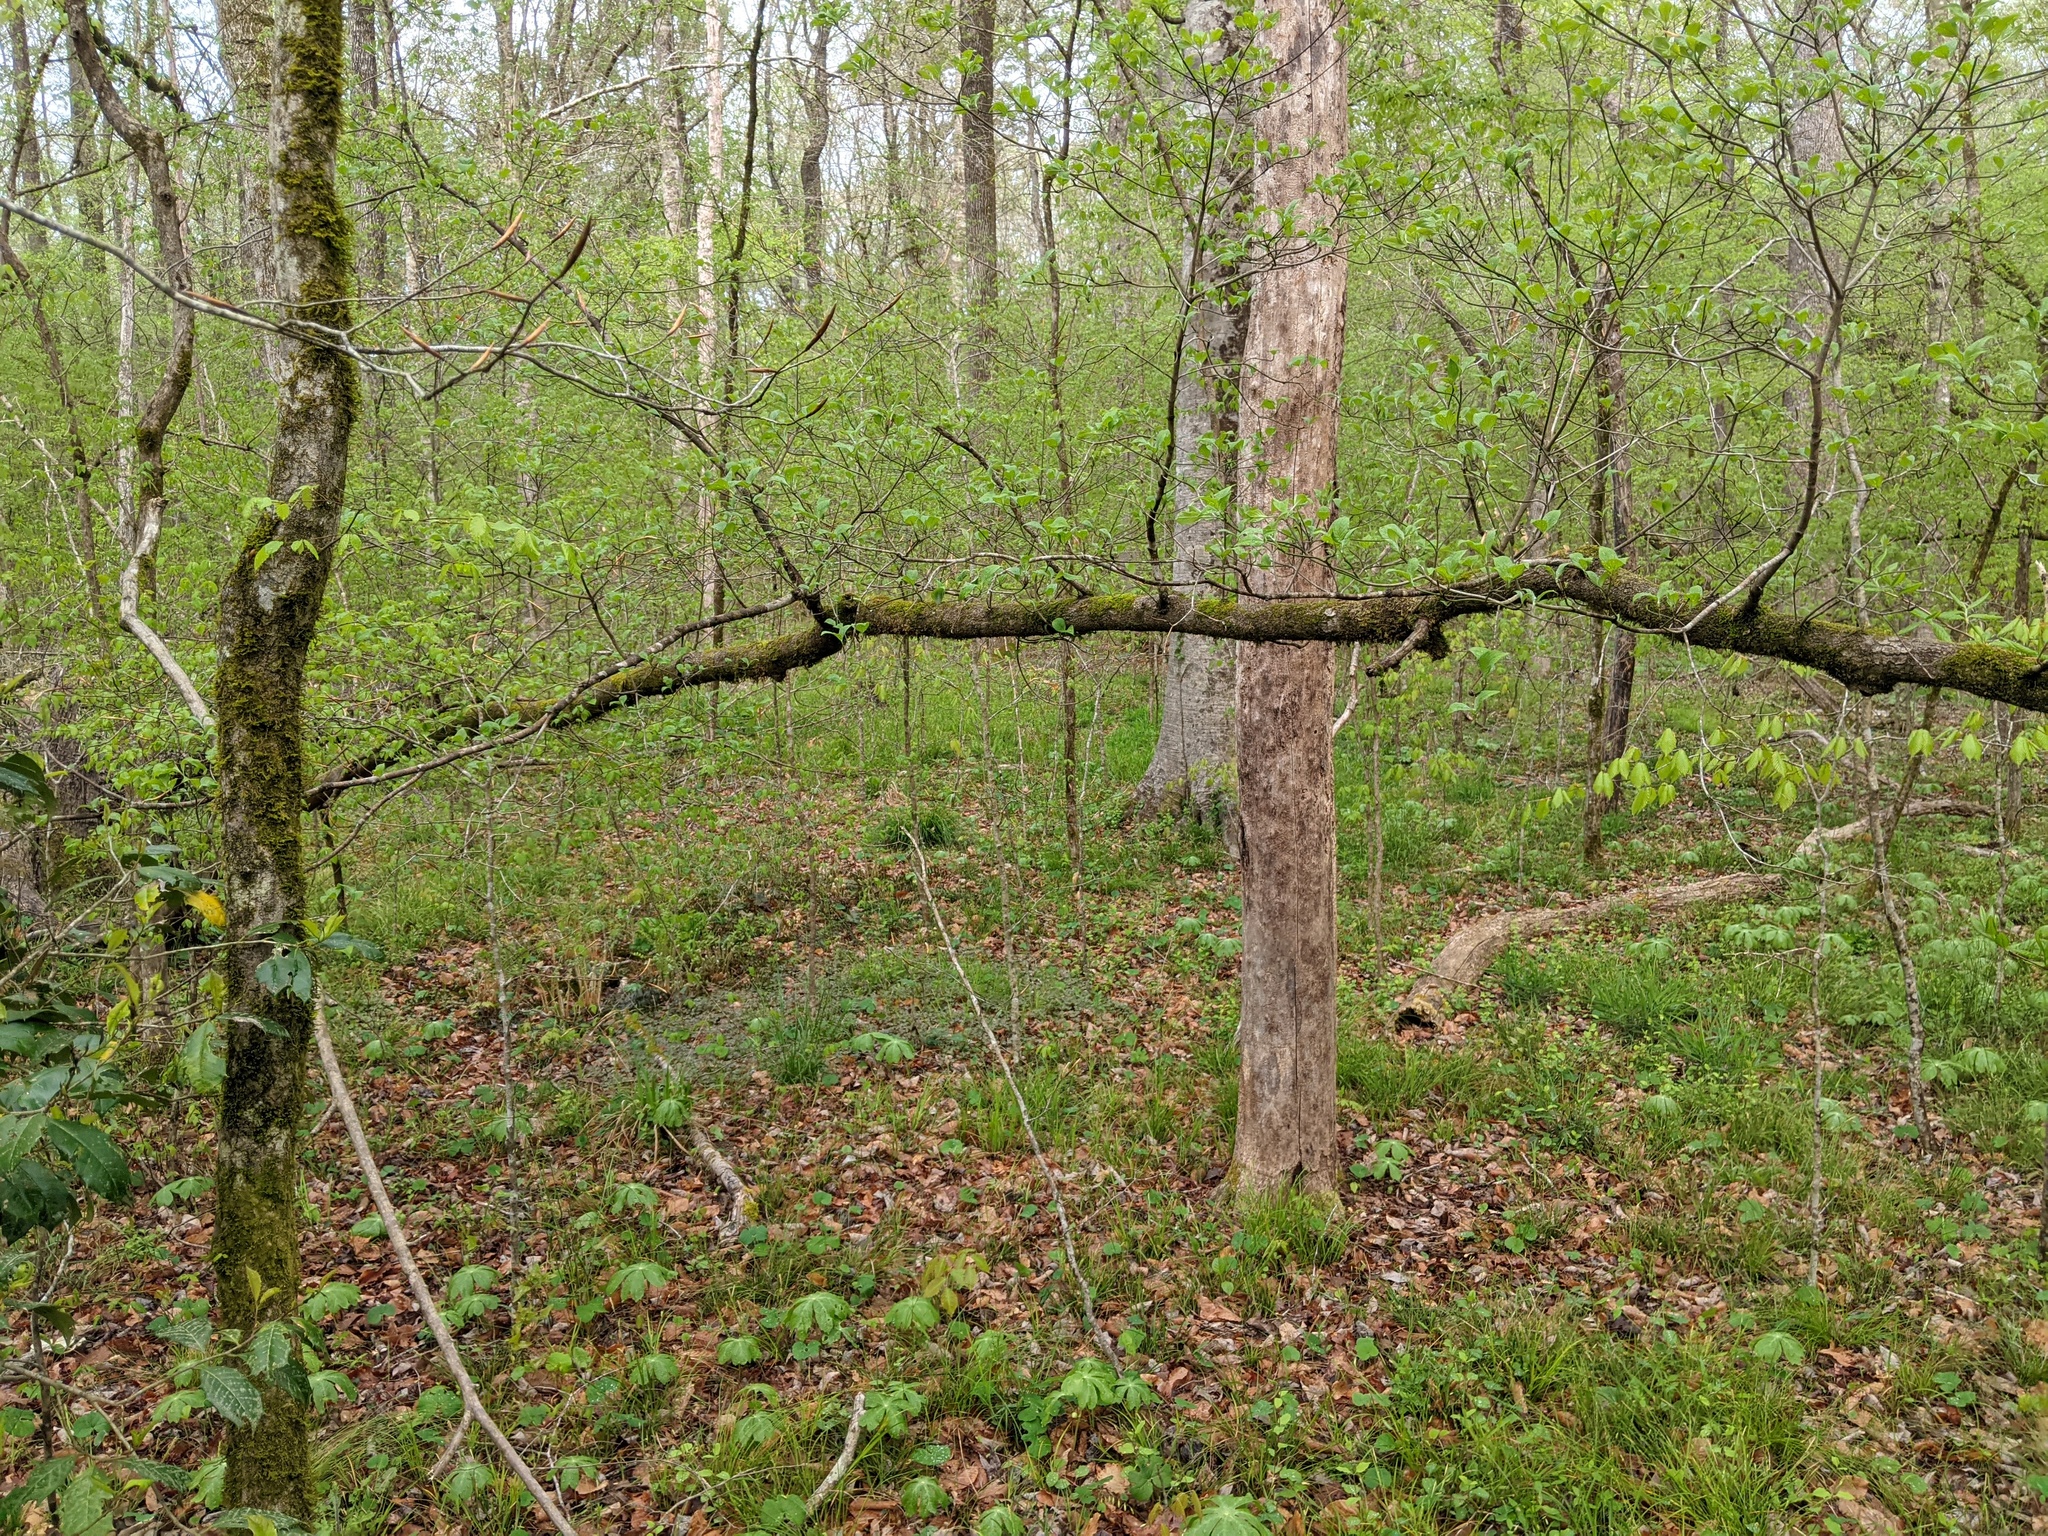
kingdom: Plantae
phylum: Tracheophyta
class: Magnoliopsida
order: Cornales
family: Cornaceae
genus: Cornus
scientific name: Cornus florida
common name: Flowering dogwood
